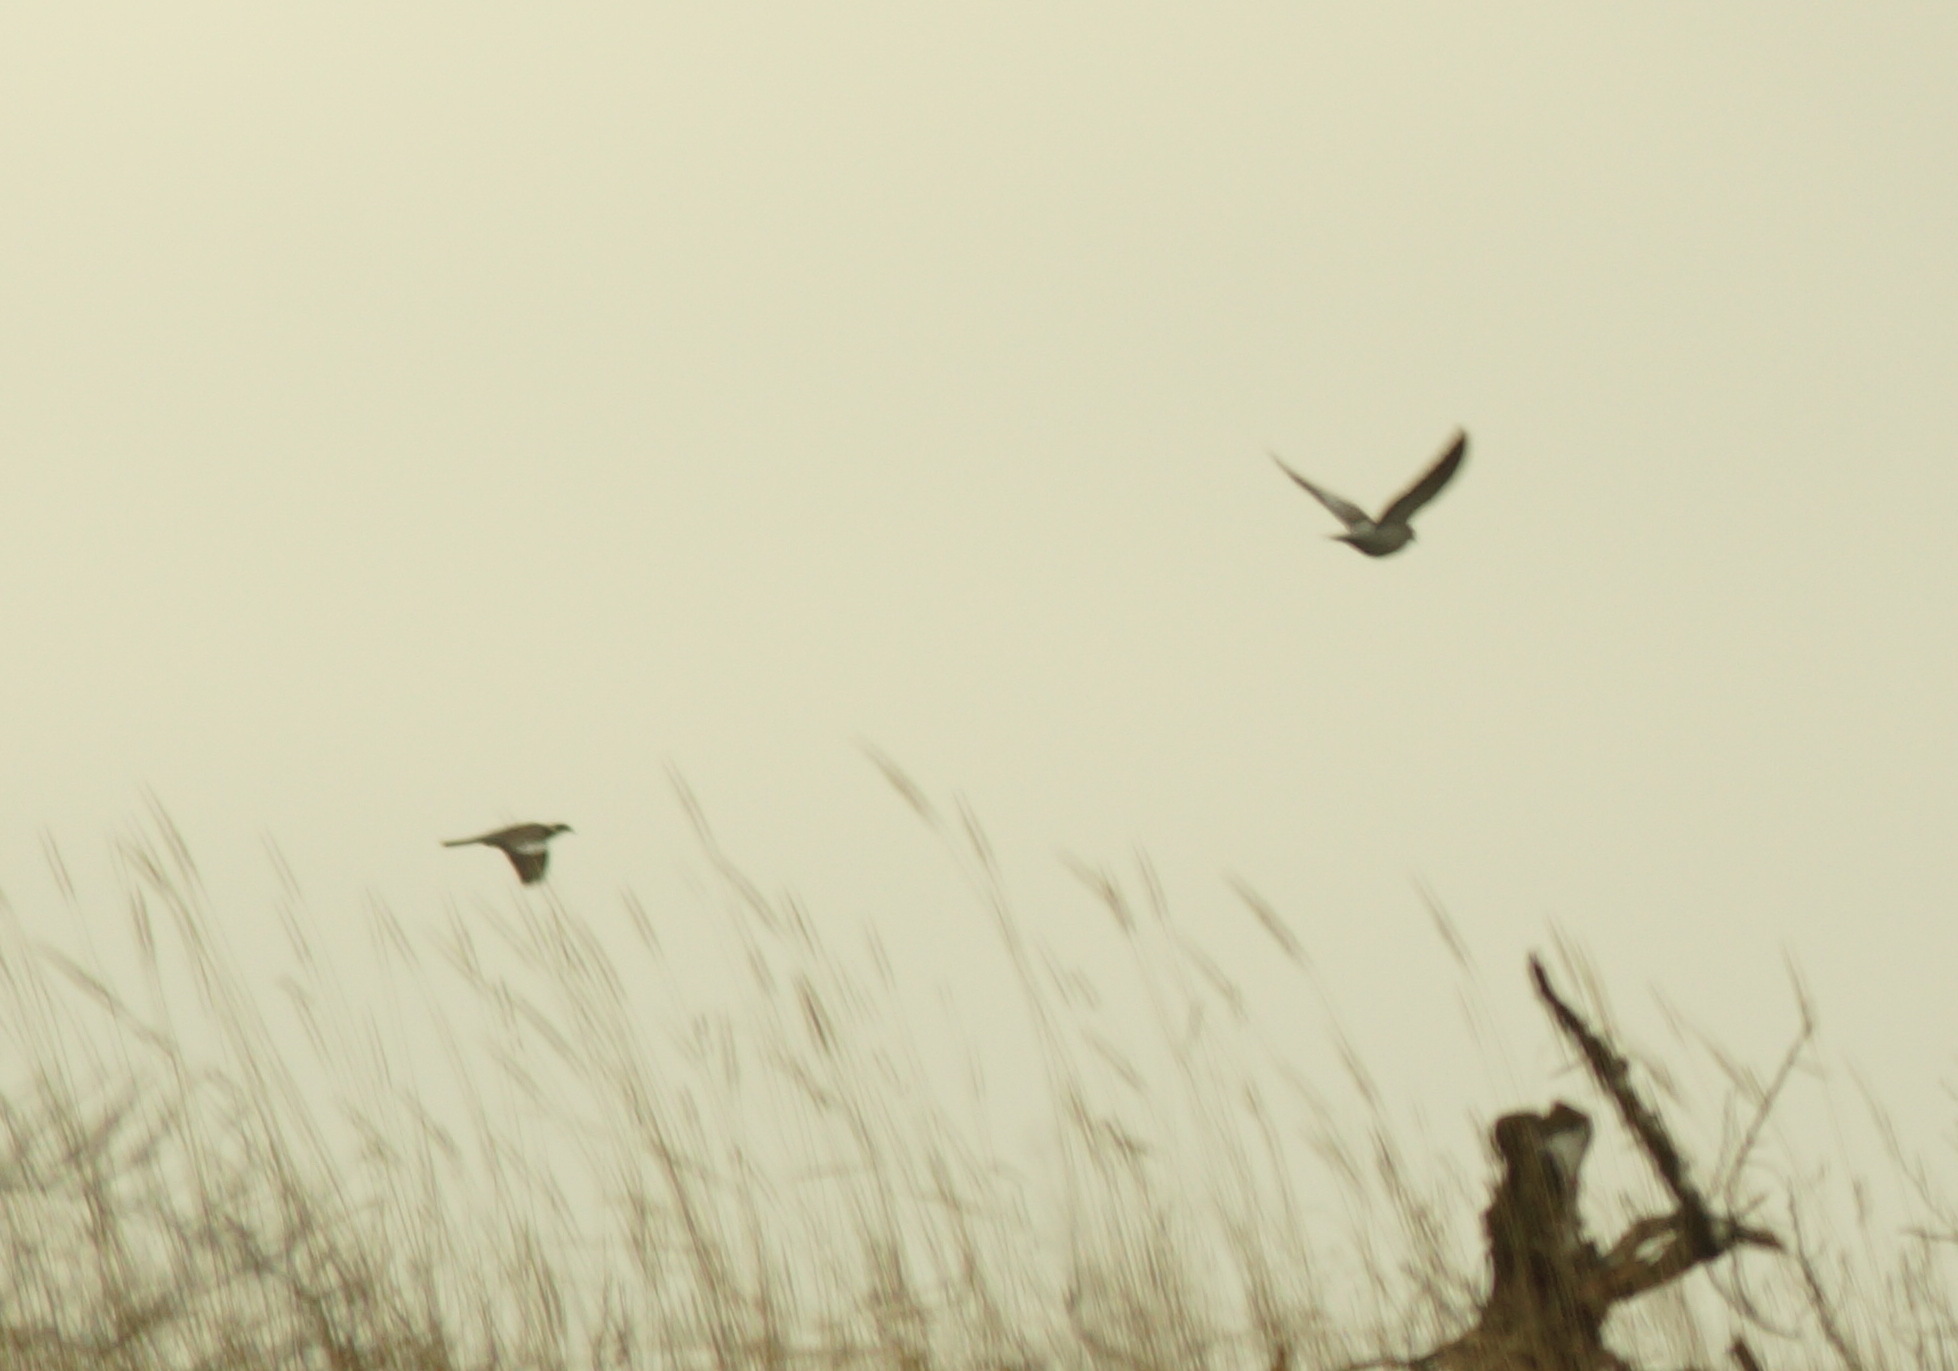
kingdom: Animalia
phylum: Chordata
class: Aves
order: Columbiformes
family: Columbidae
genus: Columba
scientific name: Columba palumbus
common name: Common wood pigeon
